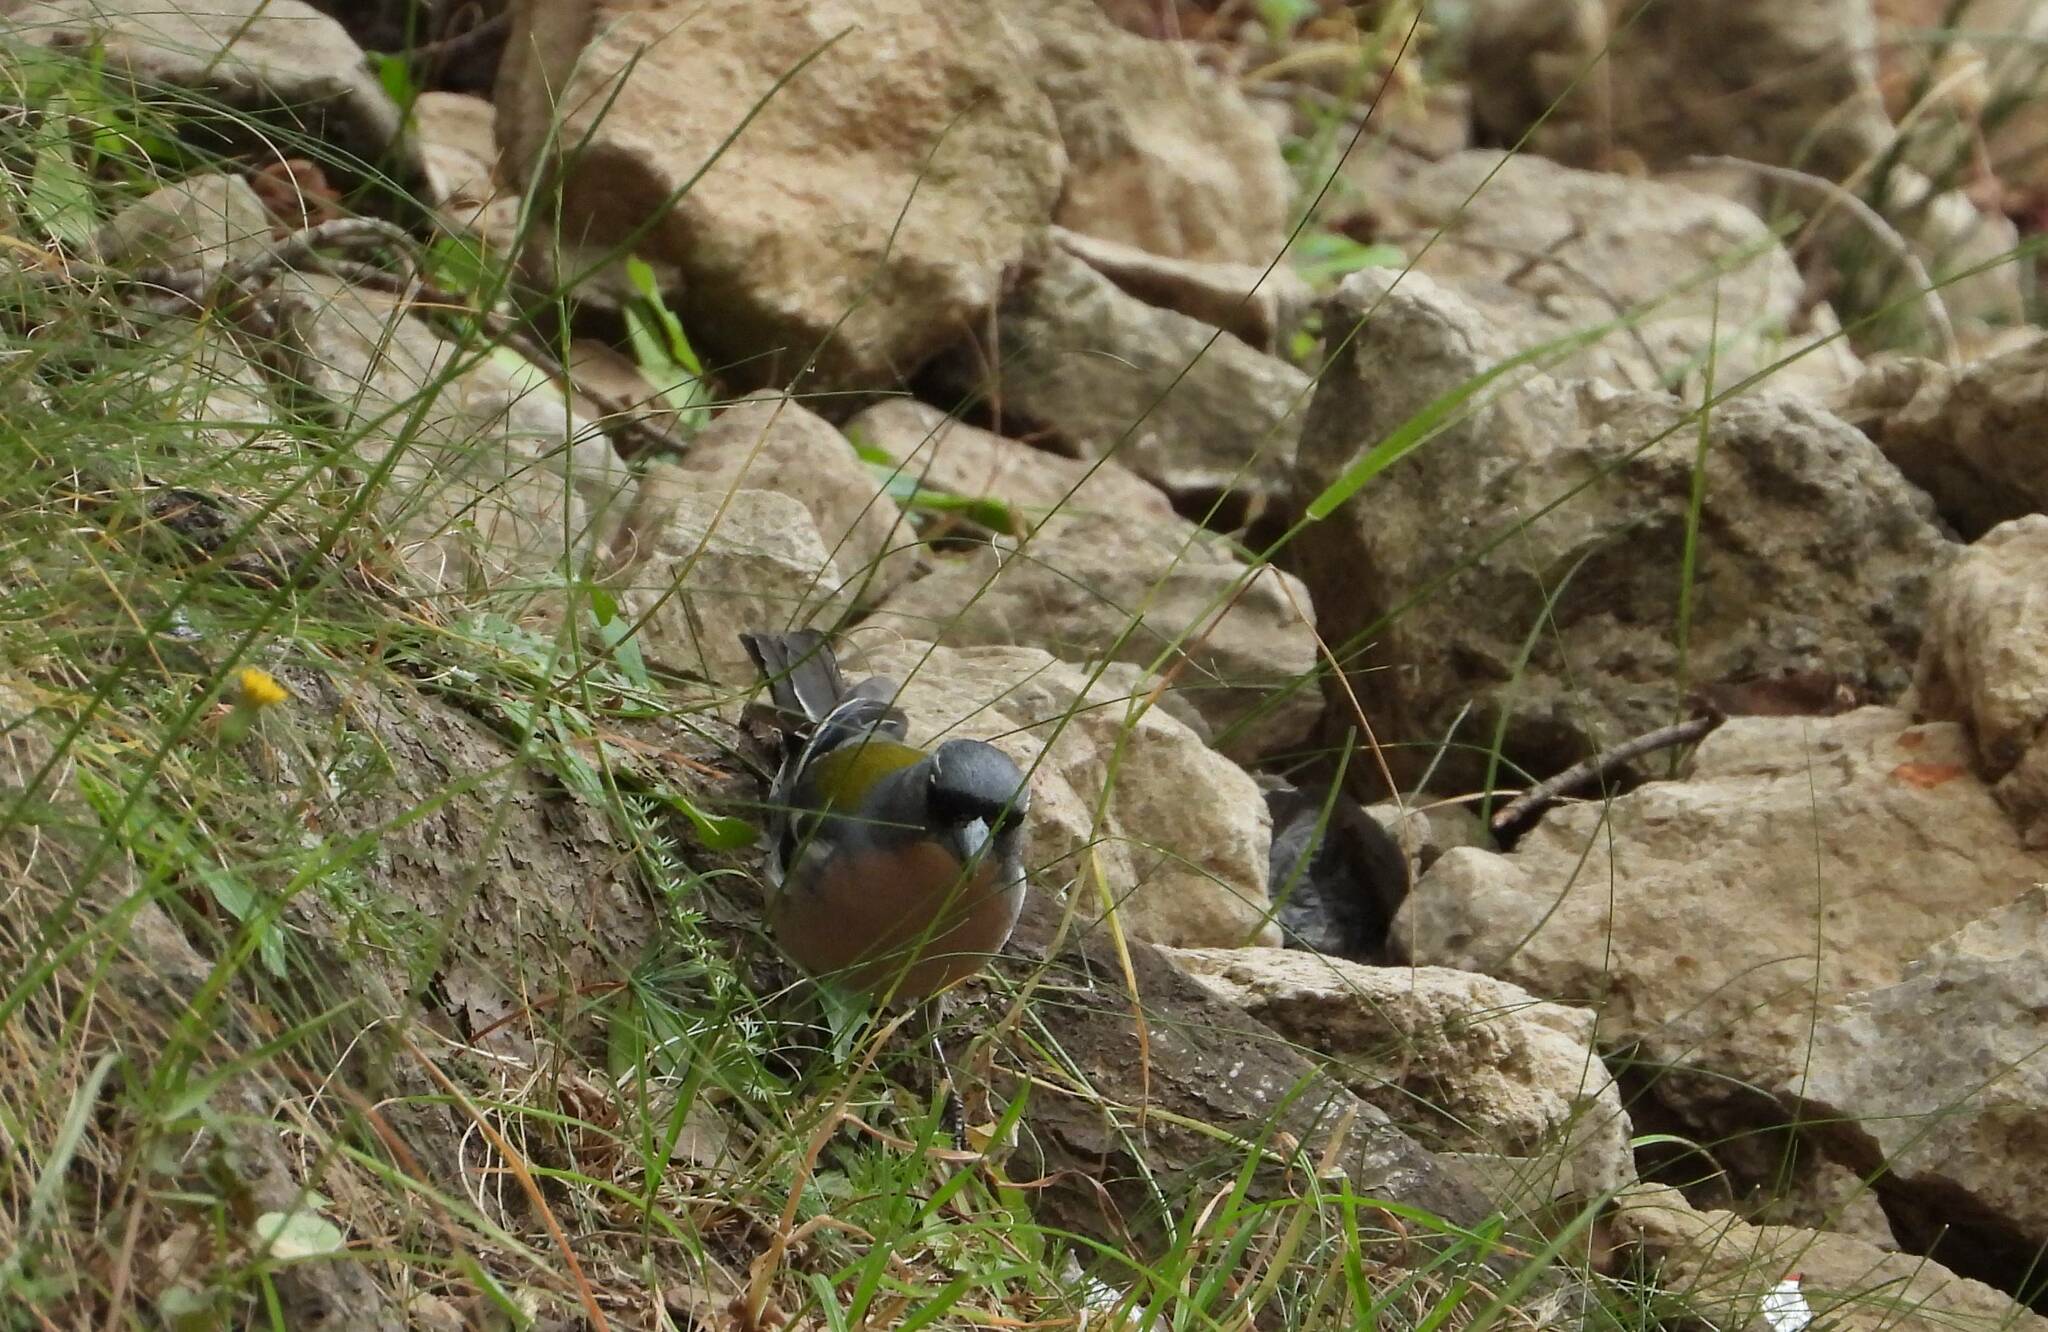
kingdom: Animalia
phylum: Chordata
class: Aves
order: Passeriformes
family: Fringillidae
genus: Fringilla
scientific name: Fringilla spodiogenys
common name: African chaffinch
